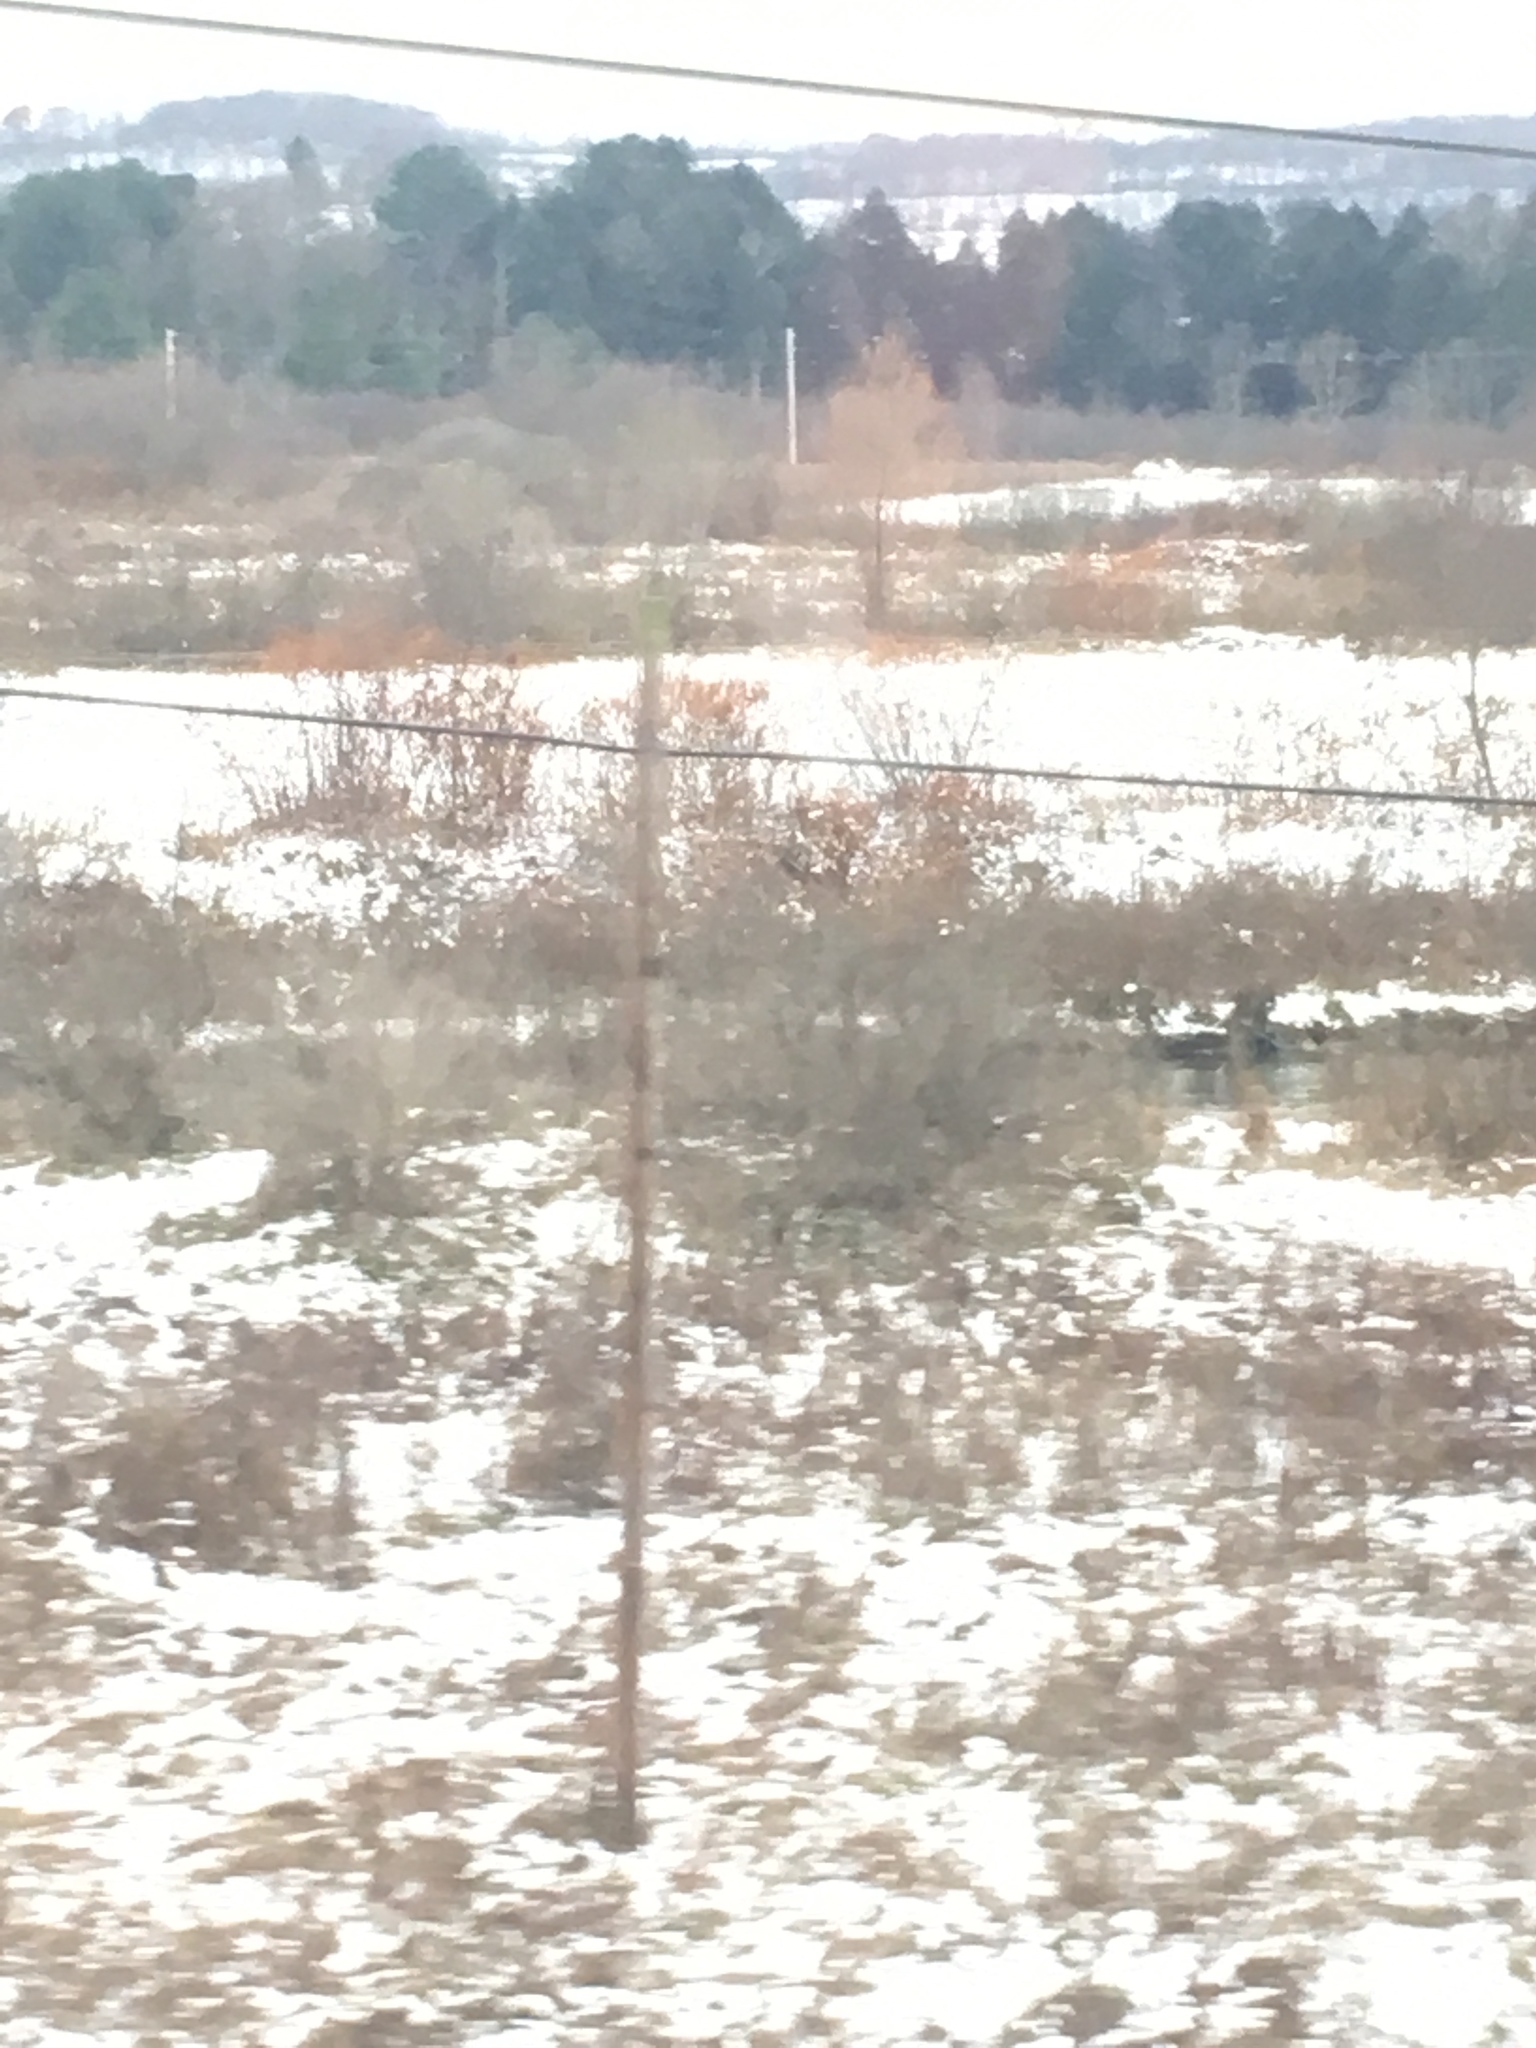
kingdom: Plantae
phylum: Tracheophyta
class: Magnoliopsida
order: Caryophyllales
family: Polygonaceae
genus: Reynoutria
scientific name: Reynoutria japonica
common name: Japanese knotweed
